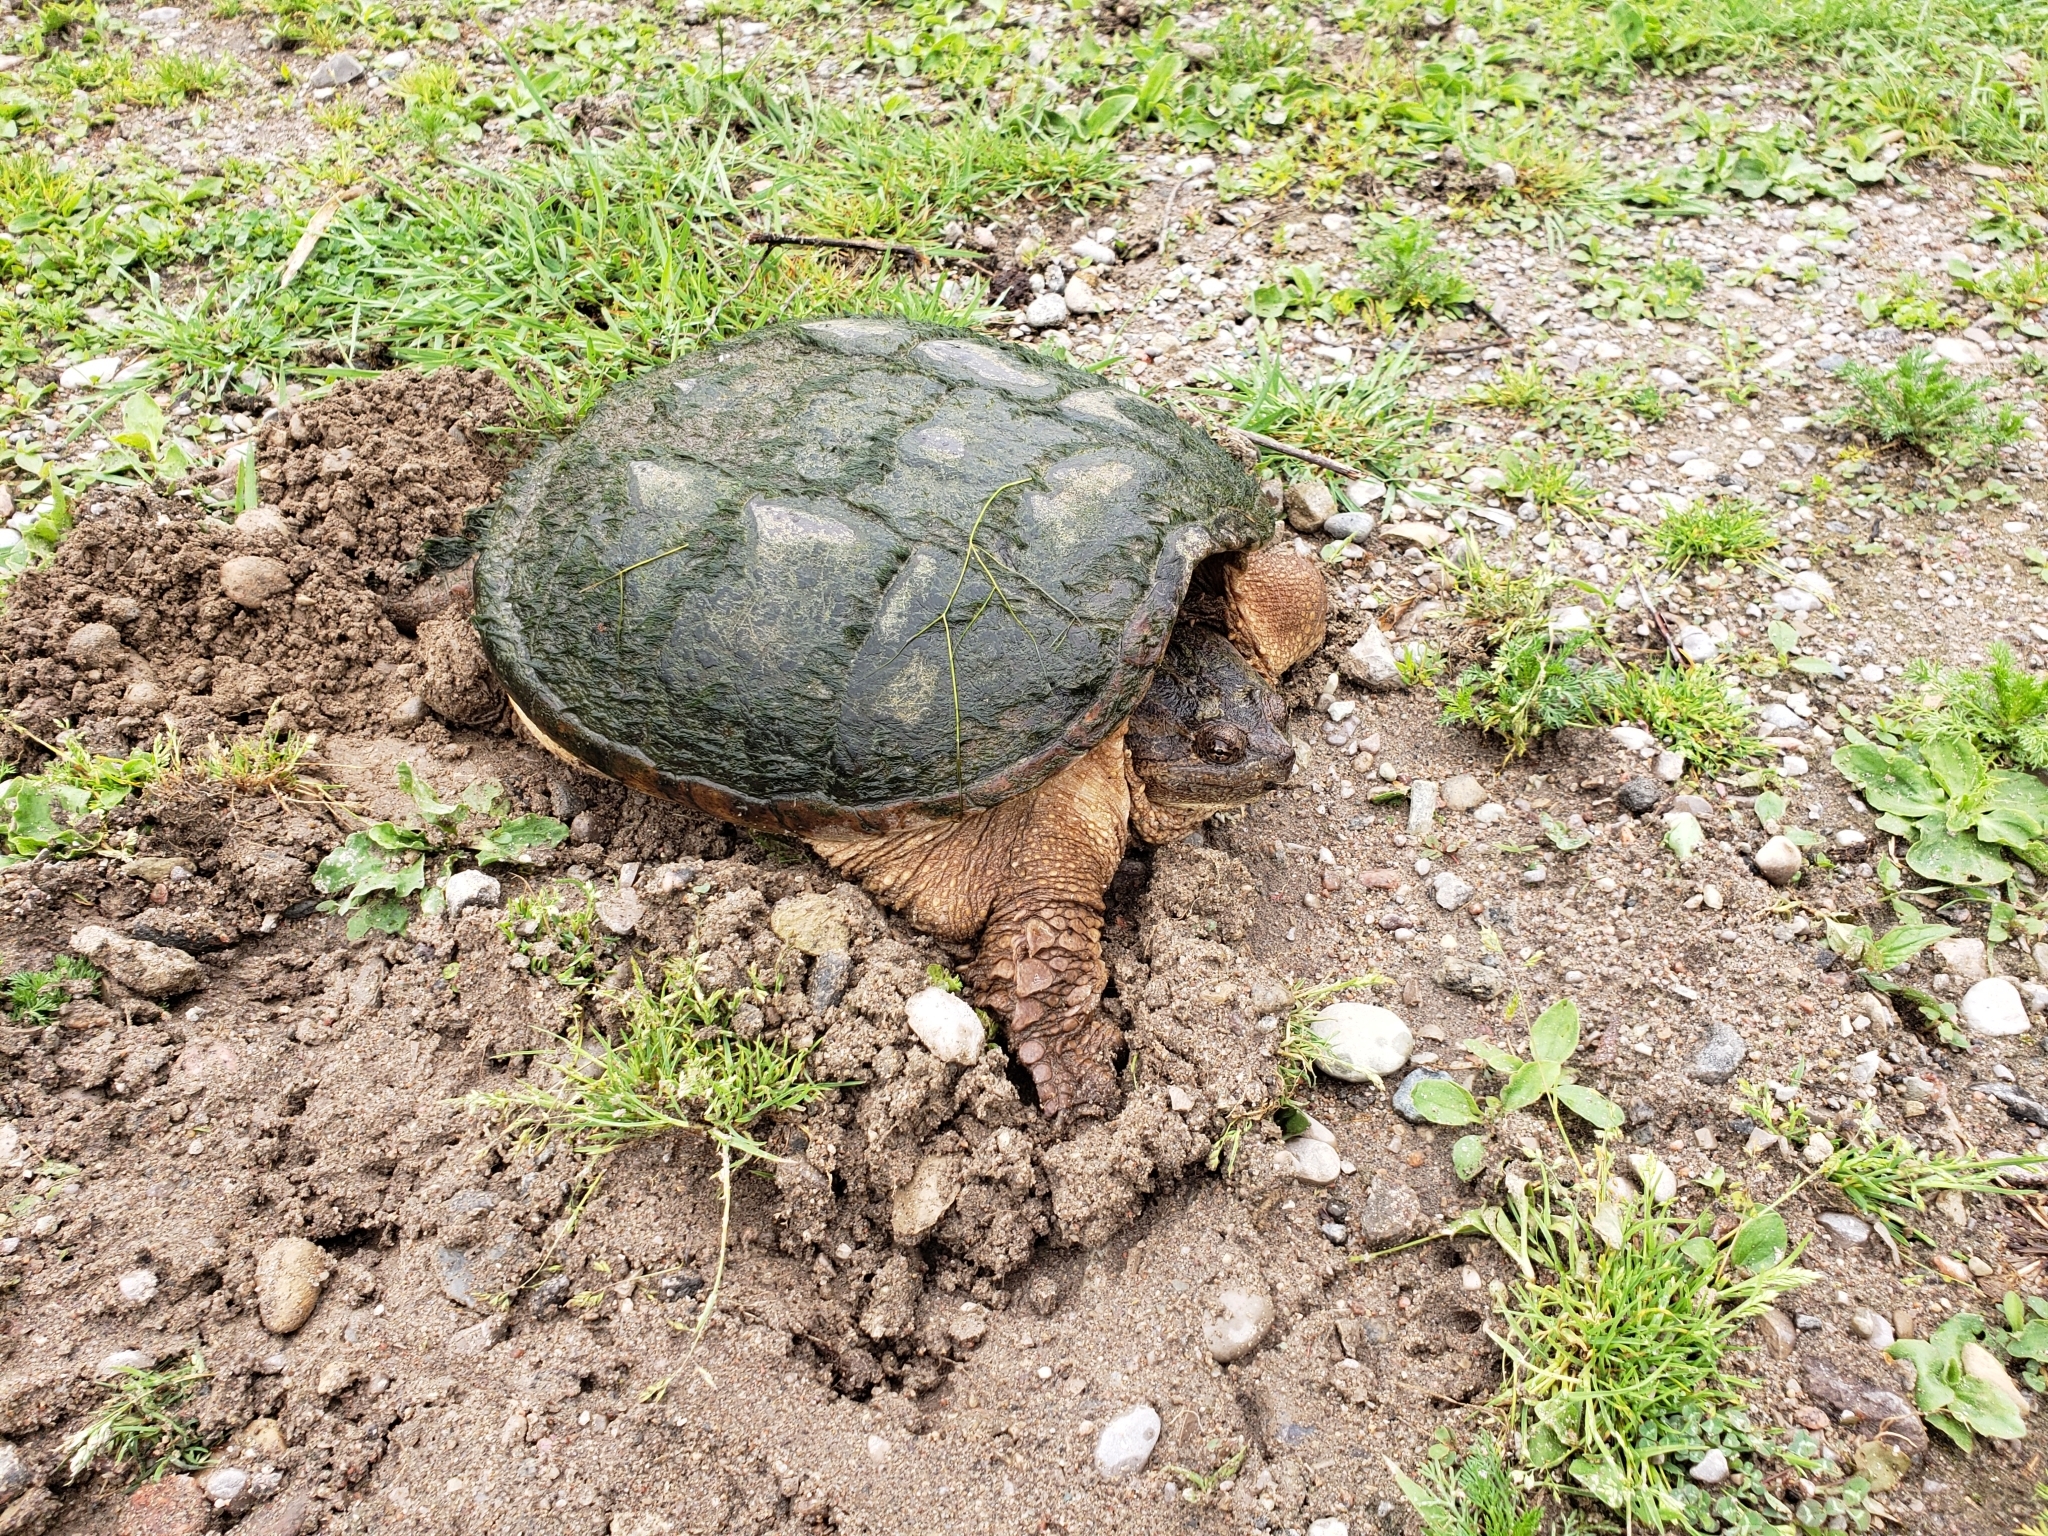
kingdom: Animalia
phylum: Chordata
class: Testudines
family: Chelydridae
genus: Chelydra
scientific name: Chelydra serpentina
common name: Common snapping turtle
